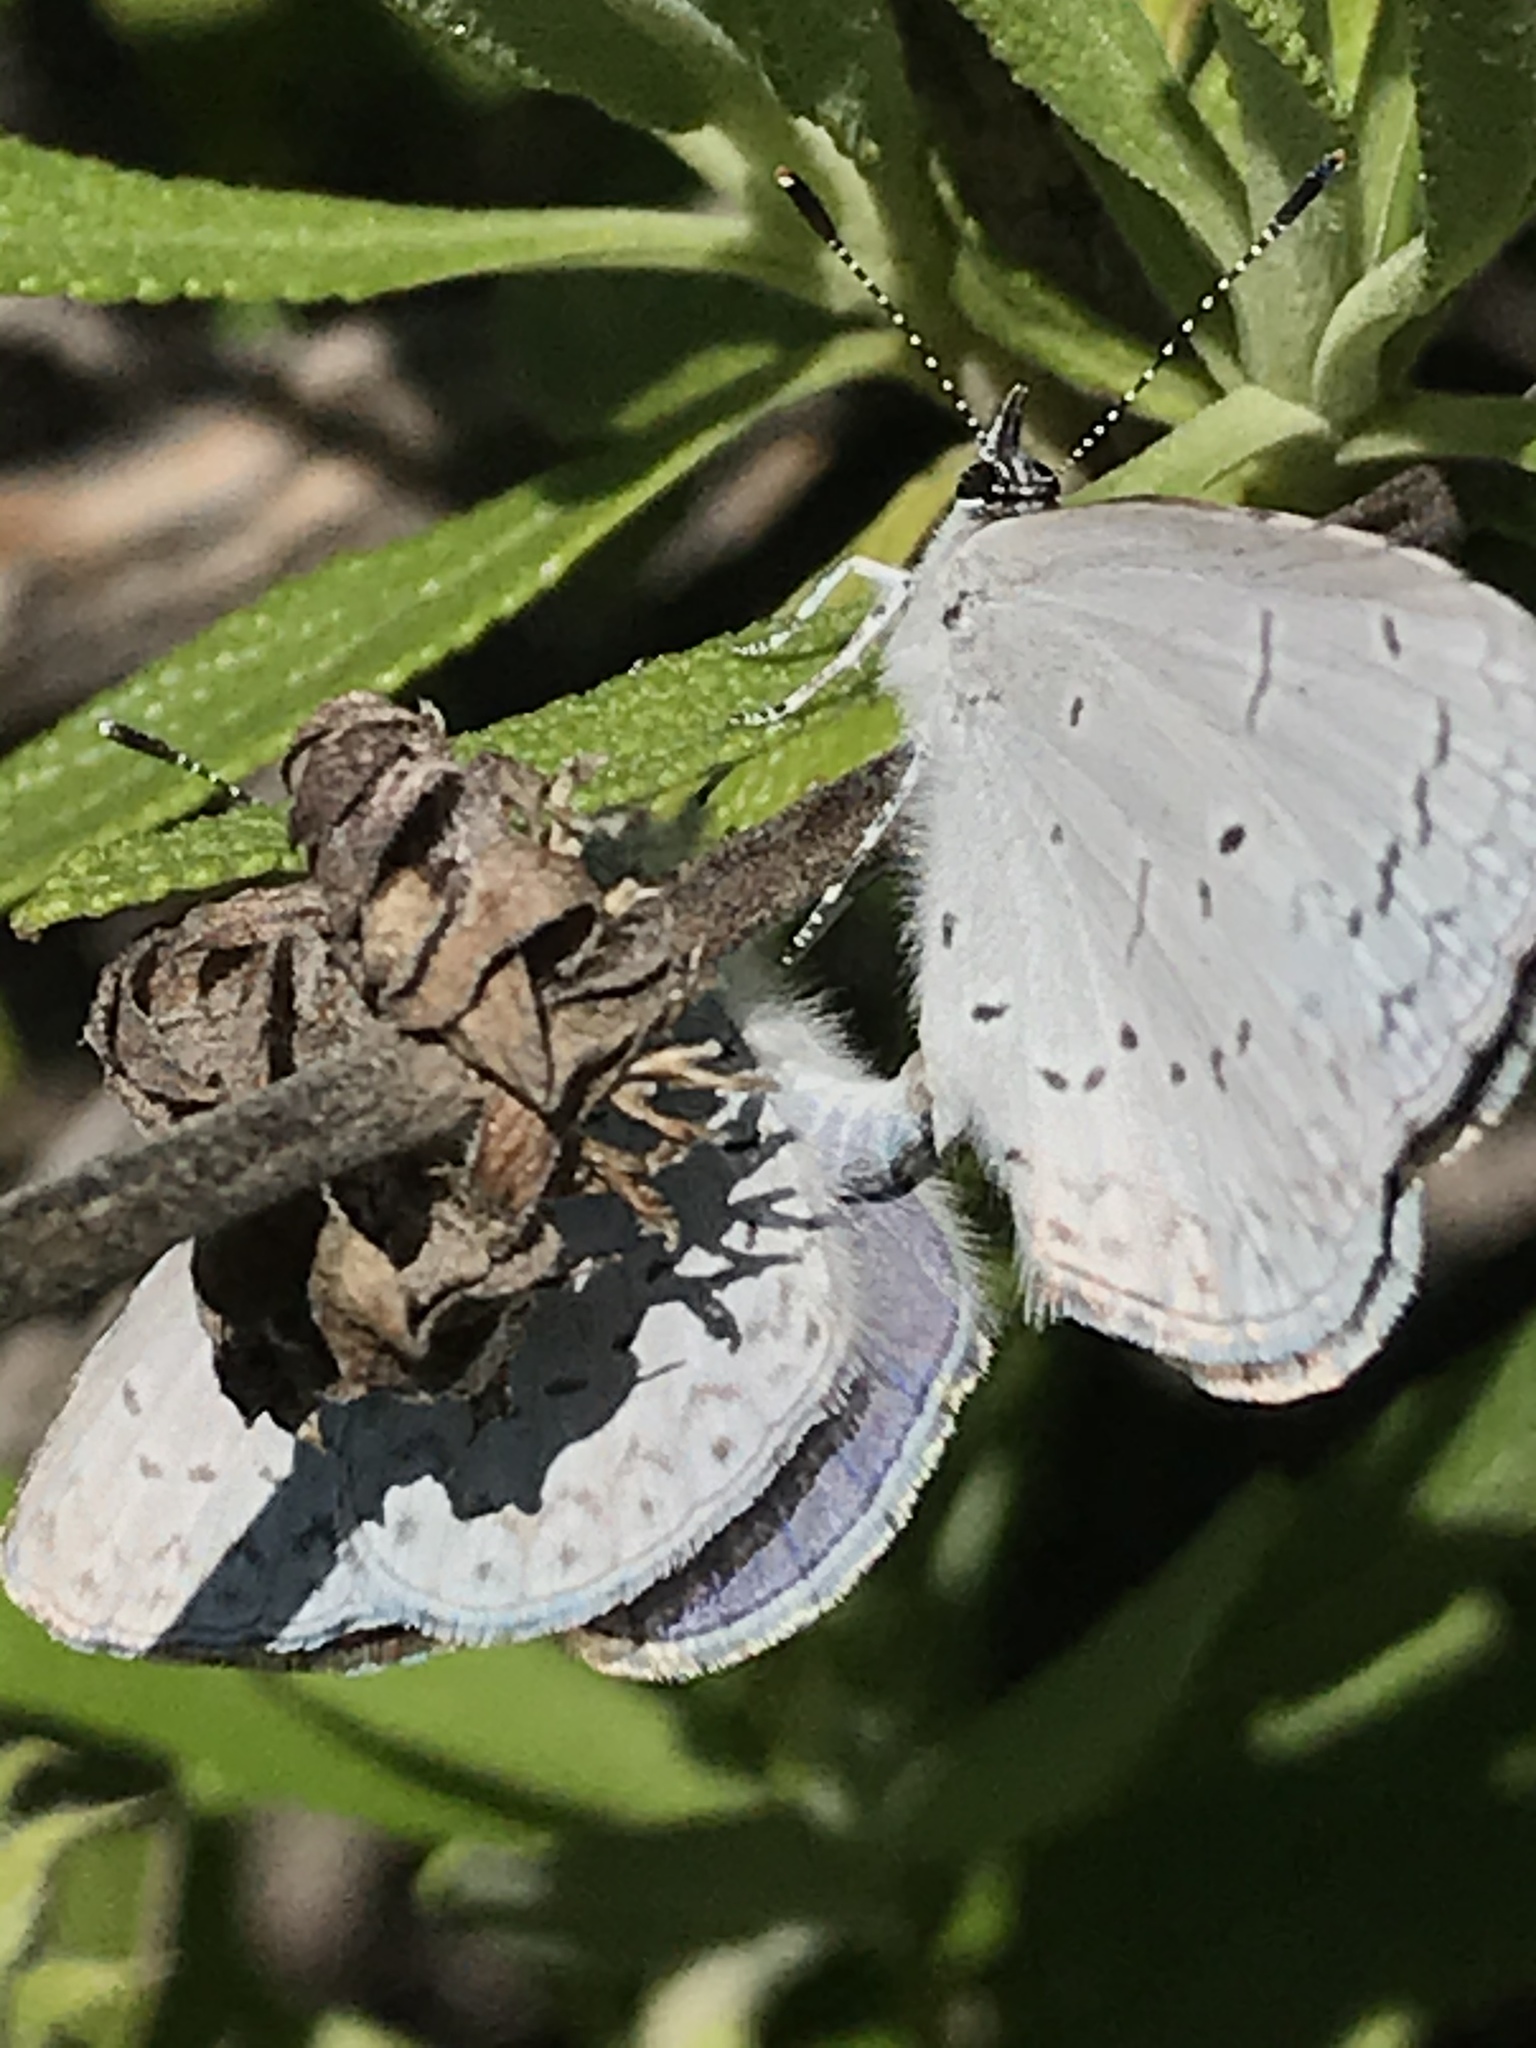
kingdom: Animalia
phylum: Arthropoda
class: Insecta
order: Lepidoptera
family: Lycaenidae
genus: Celastrina
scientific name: Celastrina ladon
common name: Spring azure
